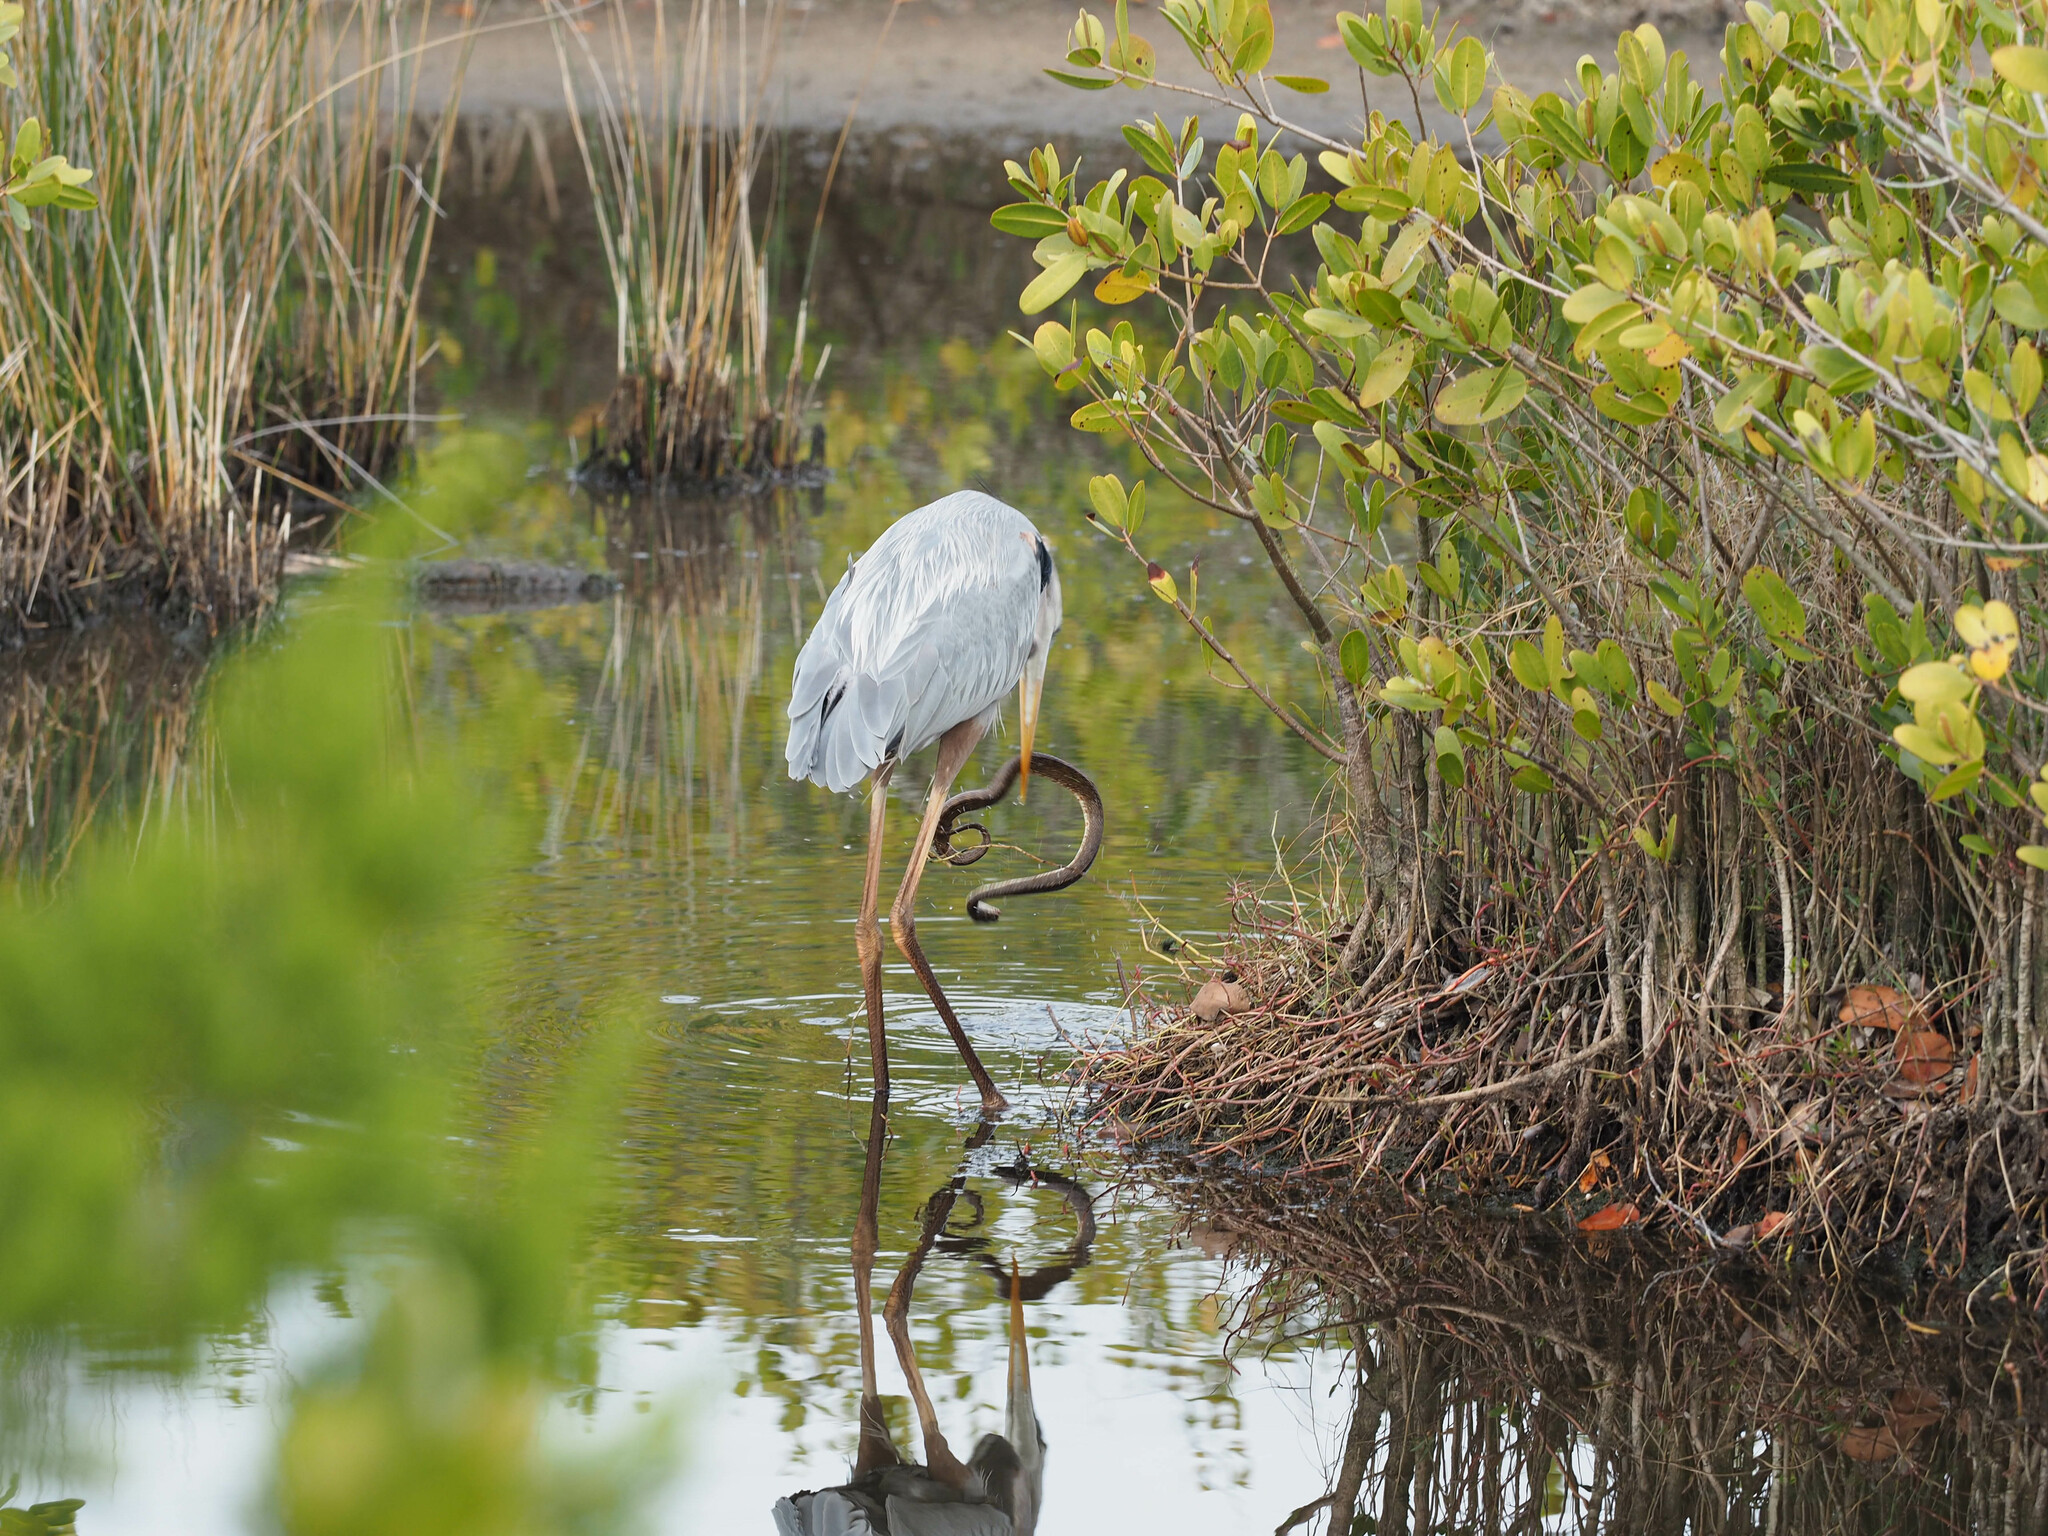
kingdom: Animalia
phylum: Chordata
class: Aves
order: Pelecaniformes
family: Ardeidae
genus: Ardea
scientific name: Ardea herodias
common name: Great blue heron
